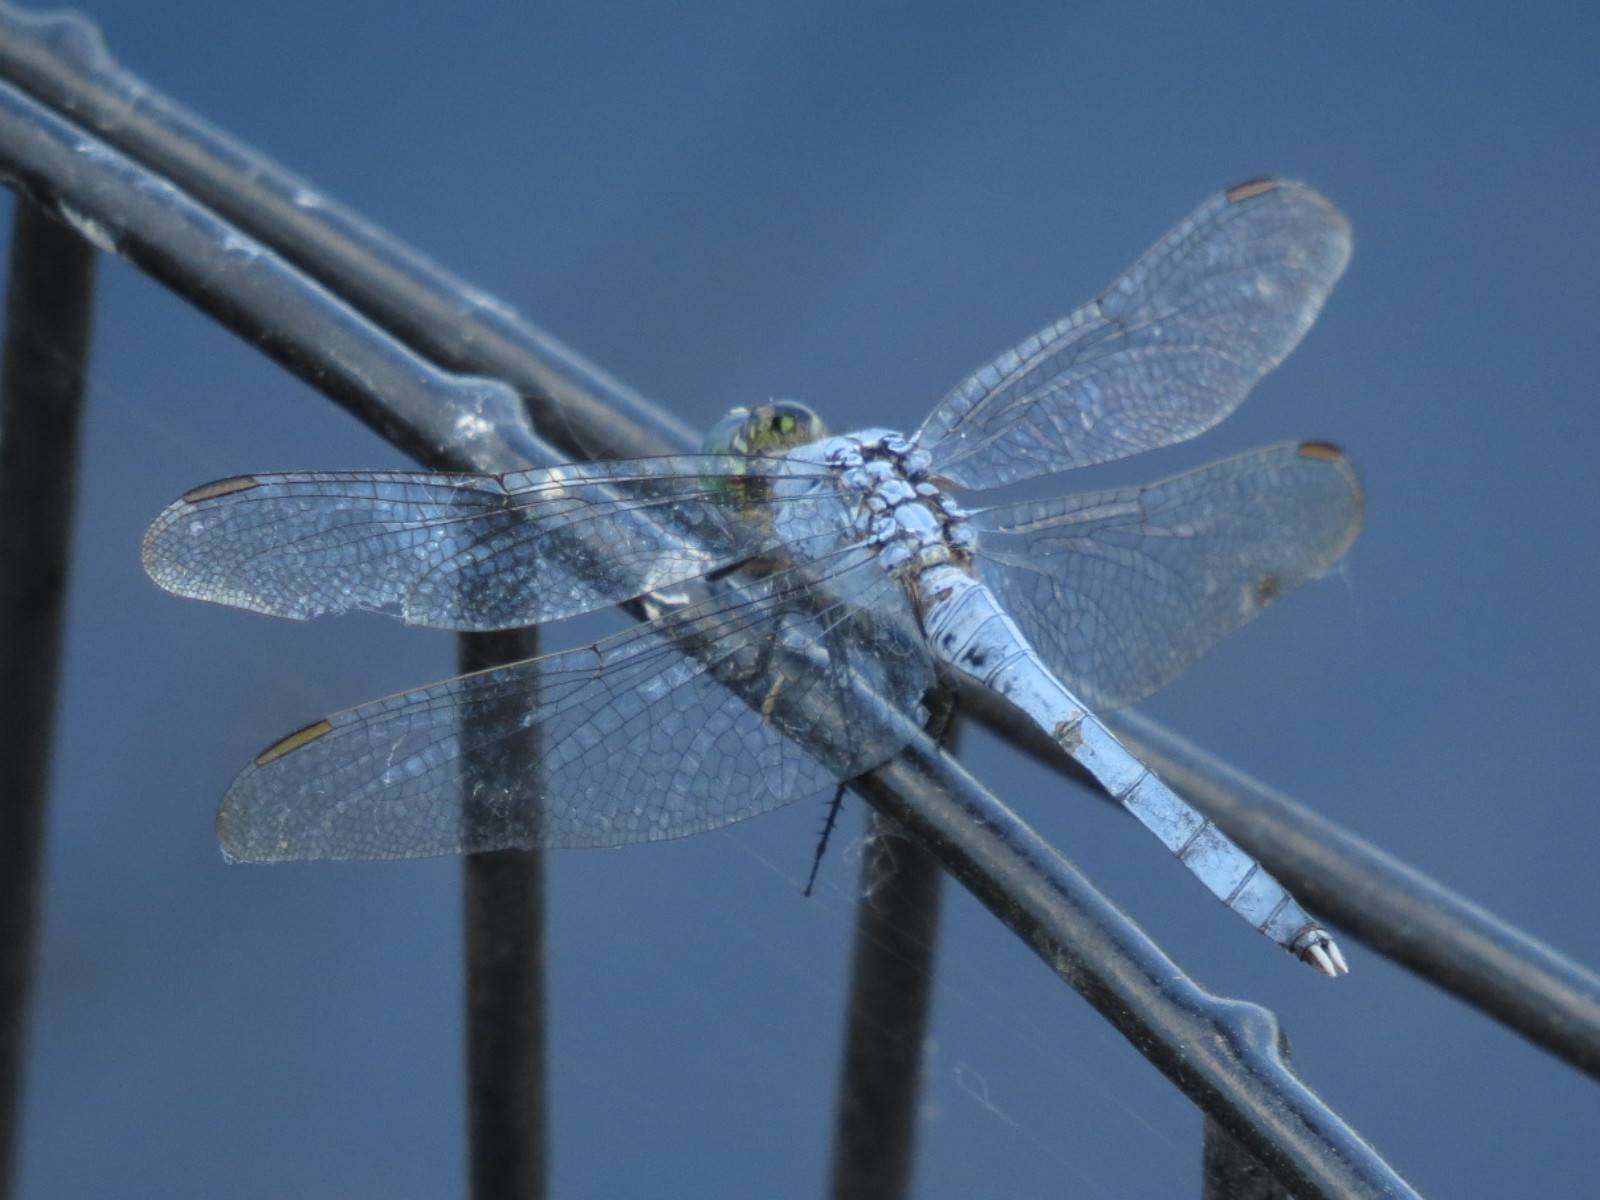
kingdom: Animalia
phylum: Arthropoda
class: Insecta
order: Odonata
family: Libellulidae
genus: Erythemis
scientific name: Erythemis simplicicollis
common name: Eastern pondhawk
